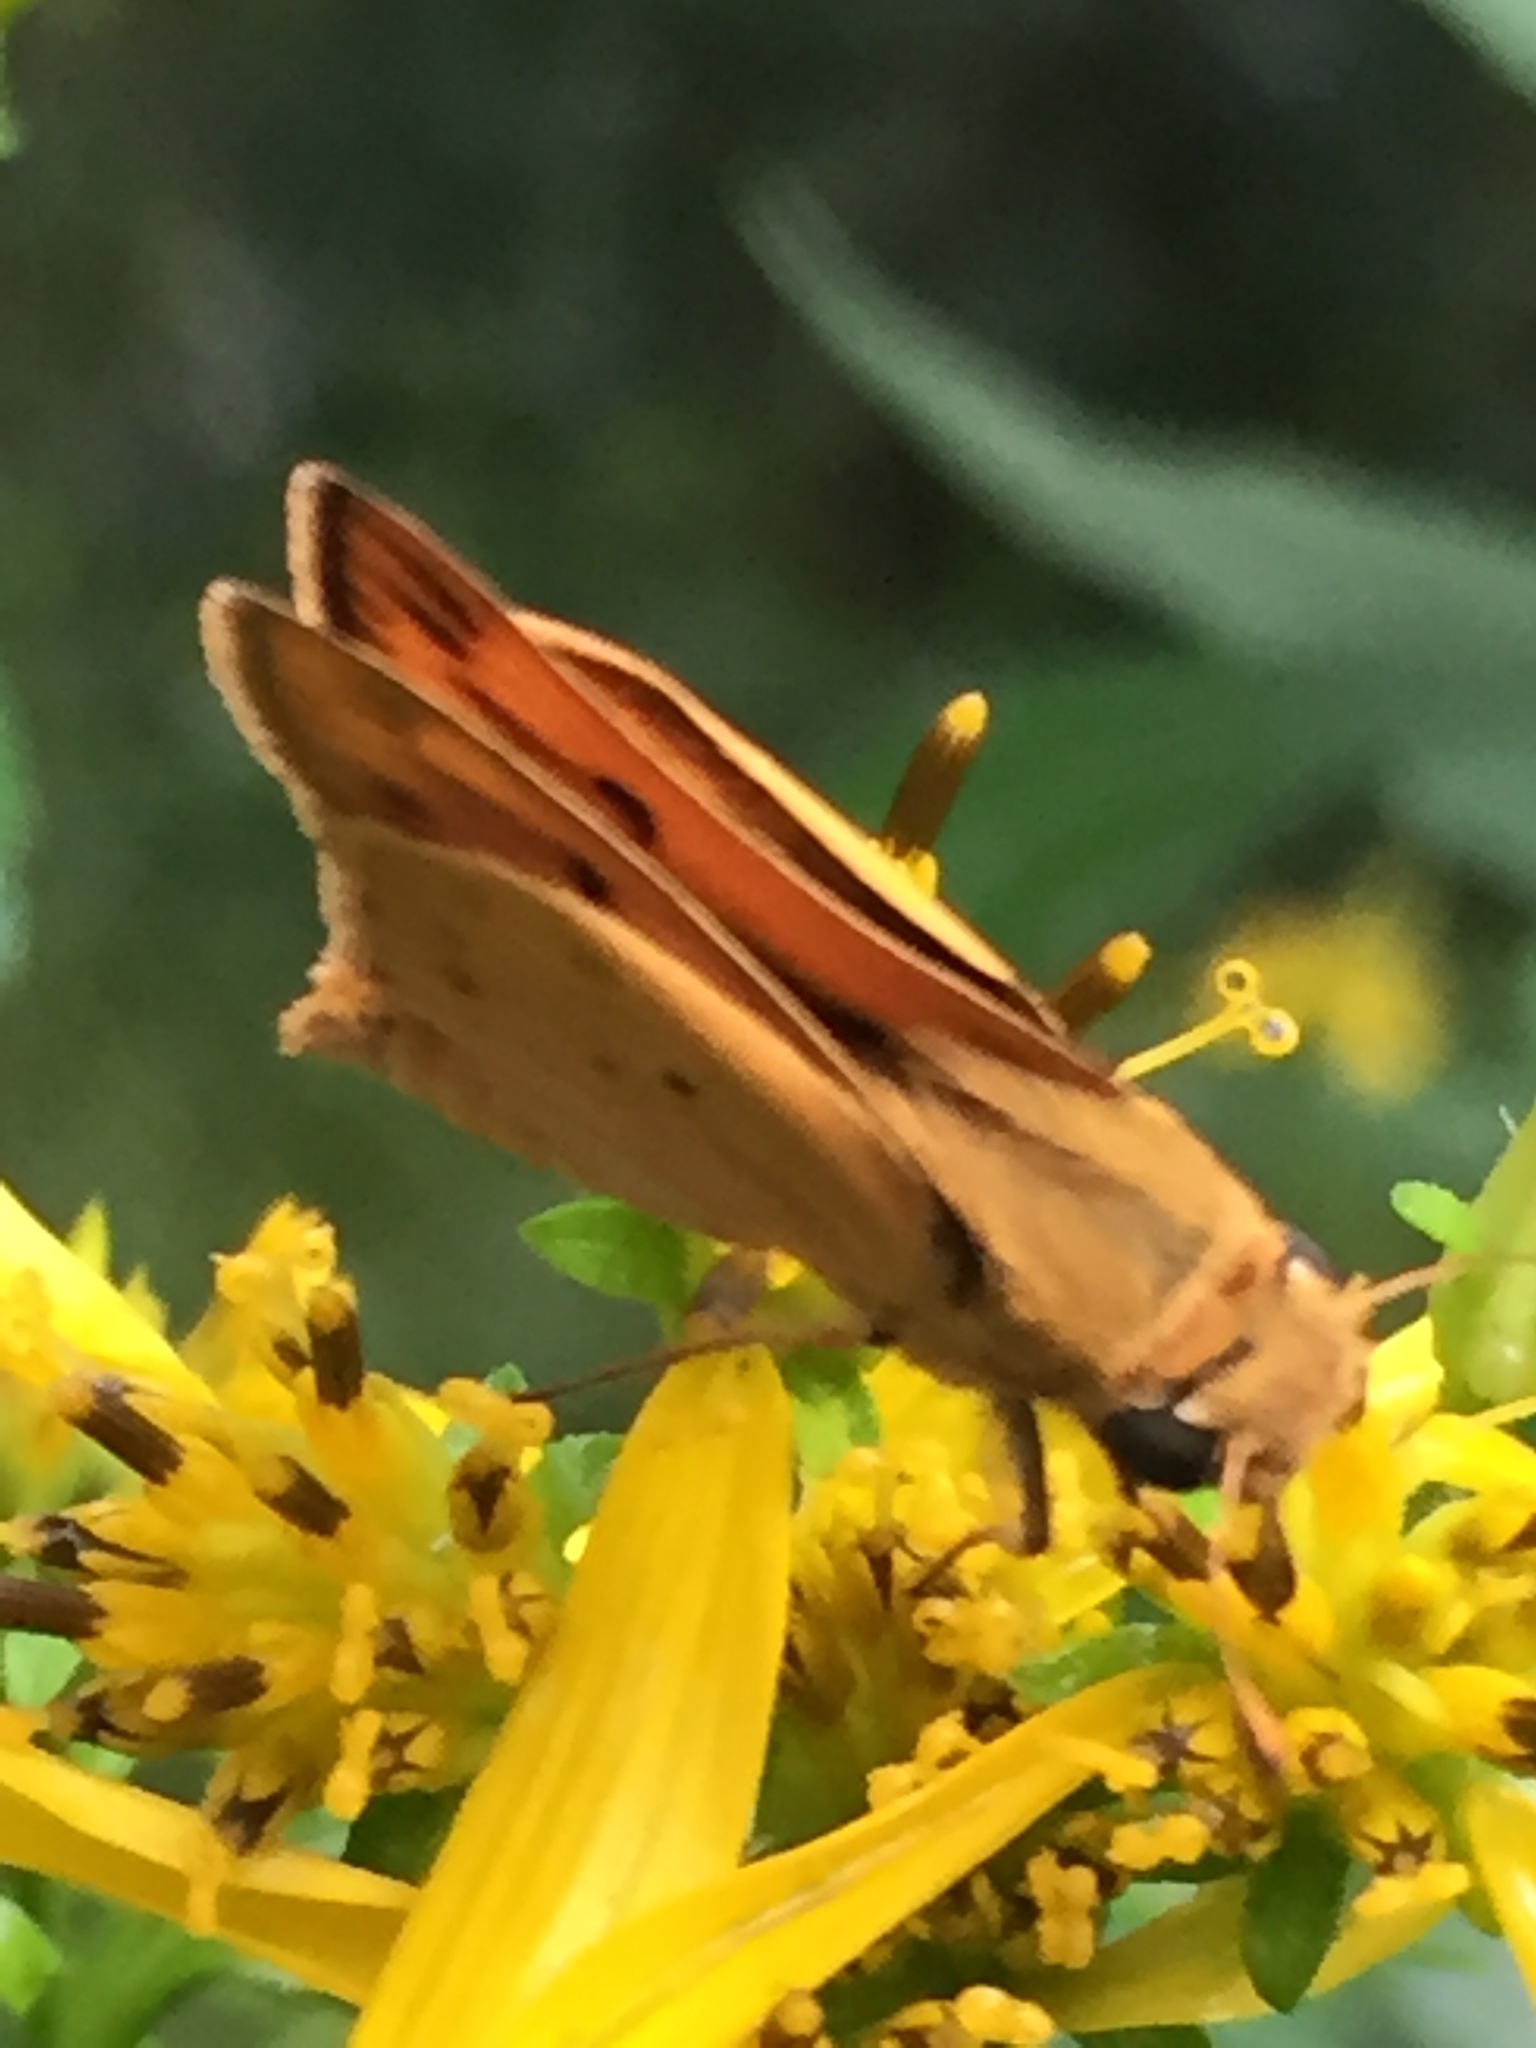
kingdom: Animalia
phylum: Arthropoda
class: Insecta
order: Lepidoptera
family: Hesperiidae
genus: Hylephila
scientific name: Hylephila phyleus
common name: Fiery skipper
